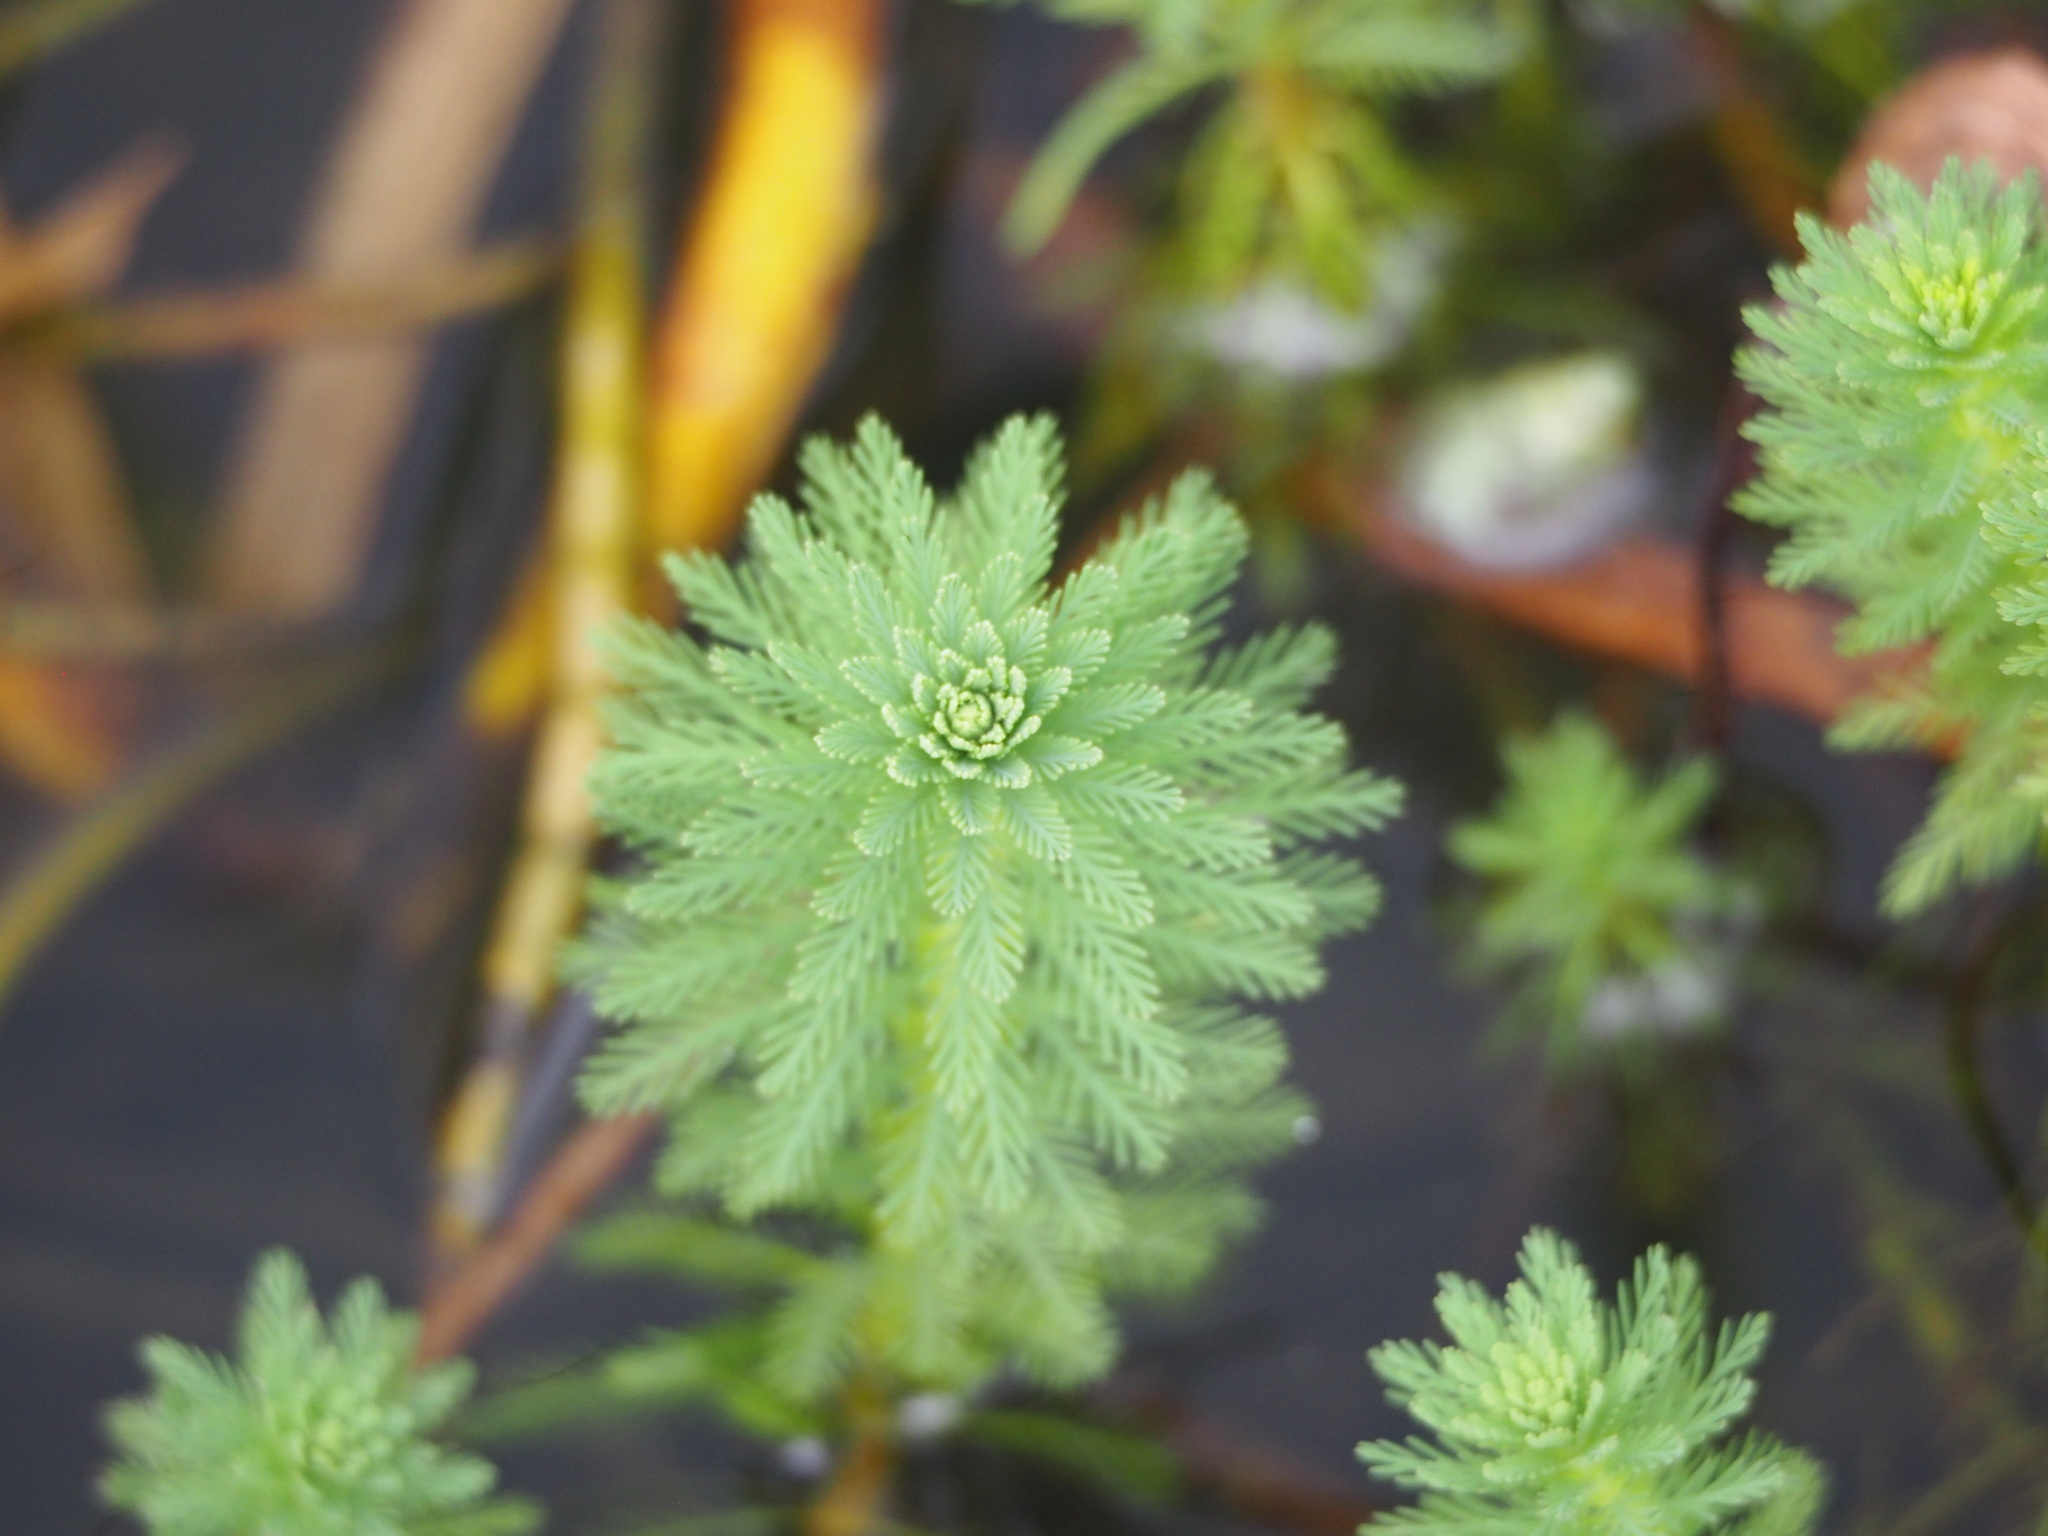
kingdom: Plantae
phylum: Tracheophyta
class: Magnoliopsida
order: Saxifragales
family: Haloragaceae
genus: Myriophyllum
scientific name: Myriophyllum aquaticum
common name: Parrot's feather
